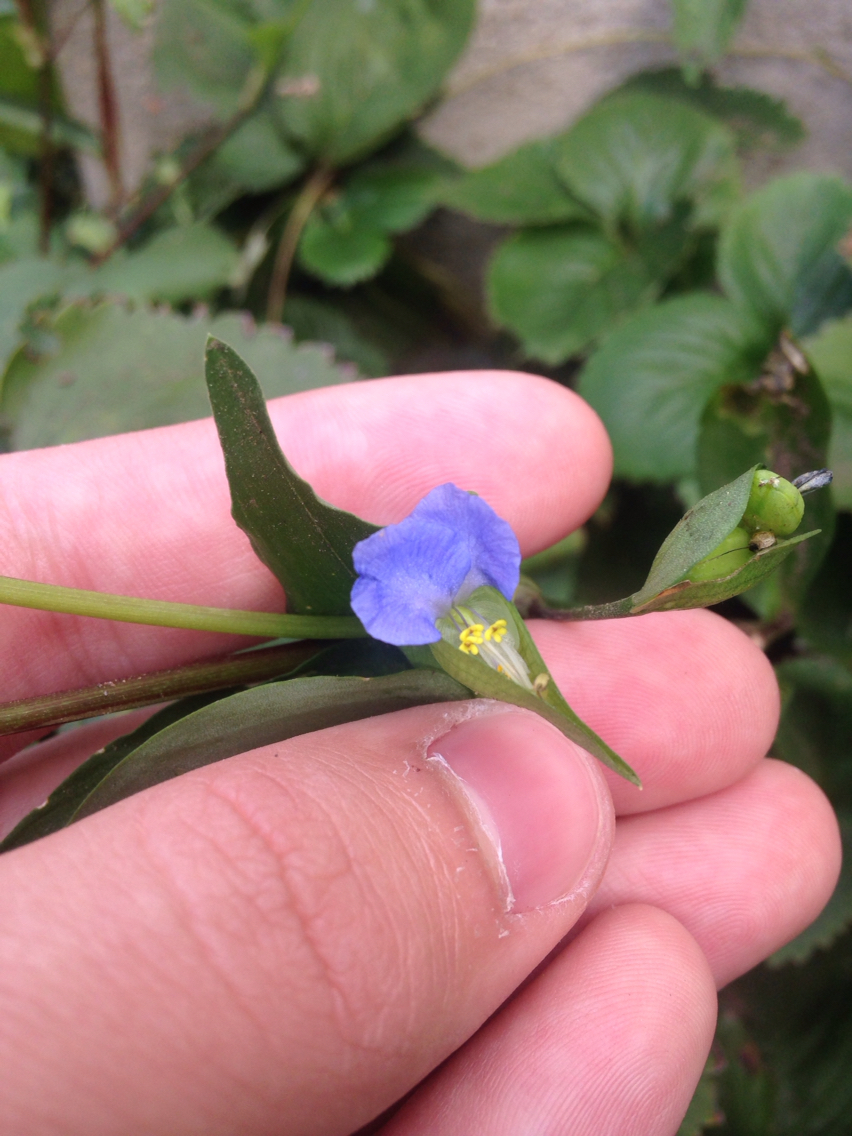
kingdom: Plantae
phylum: Tracheophyta
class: Liliopsida
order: Commelinales
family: Commelinaceae
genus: Commelina
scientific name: Commelina communis
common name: Asiatic dayflower
